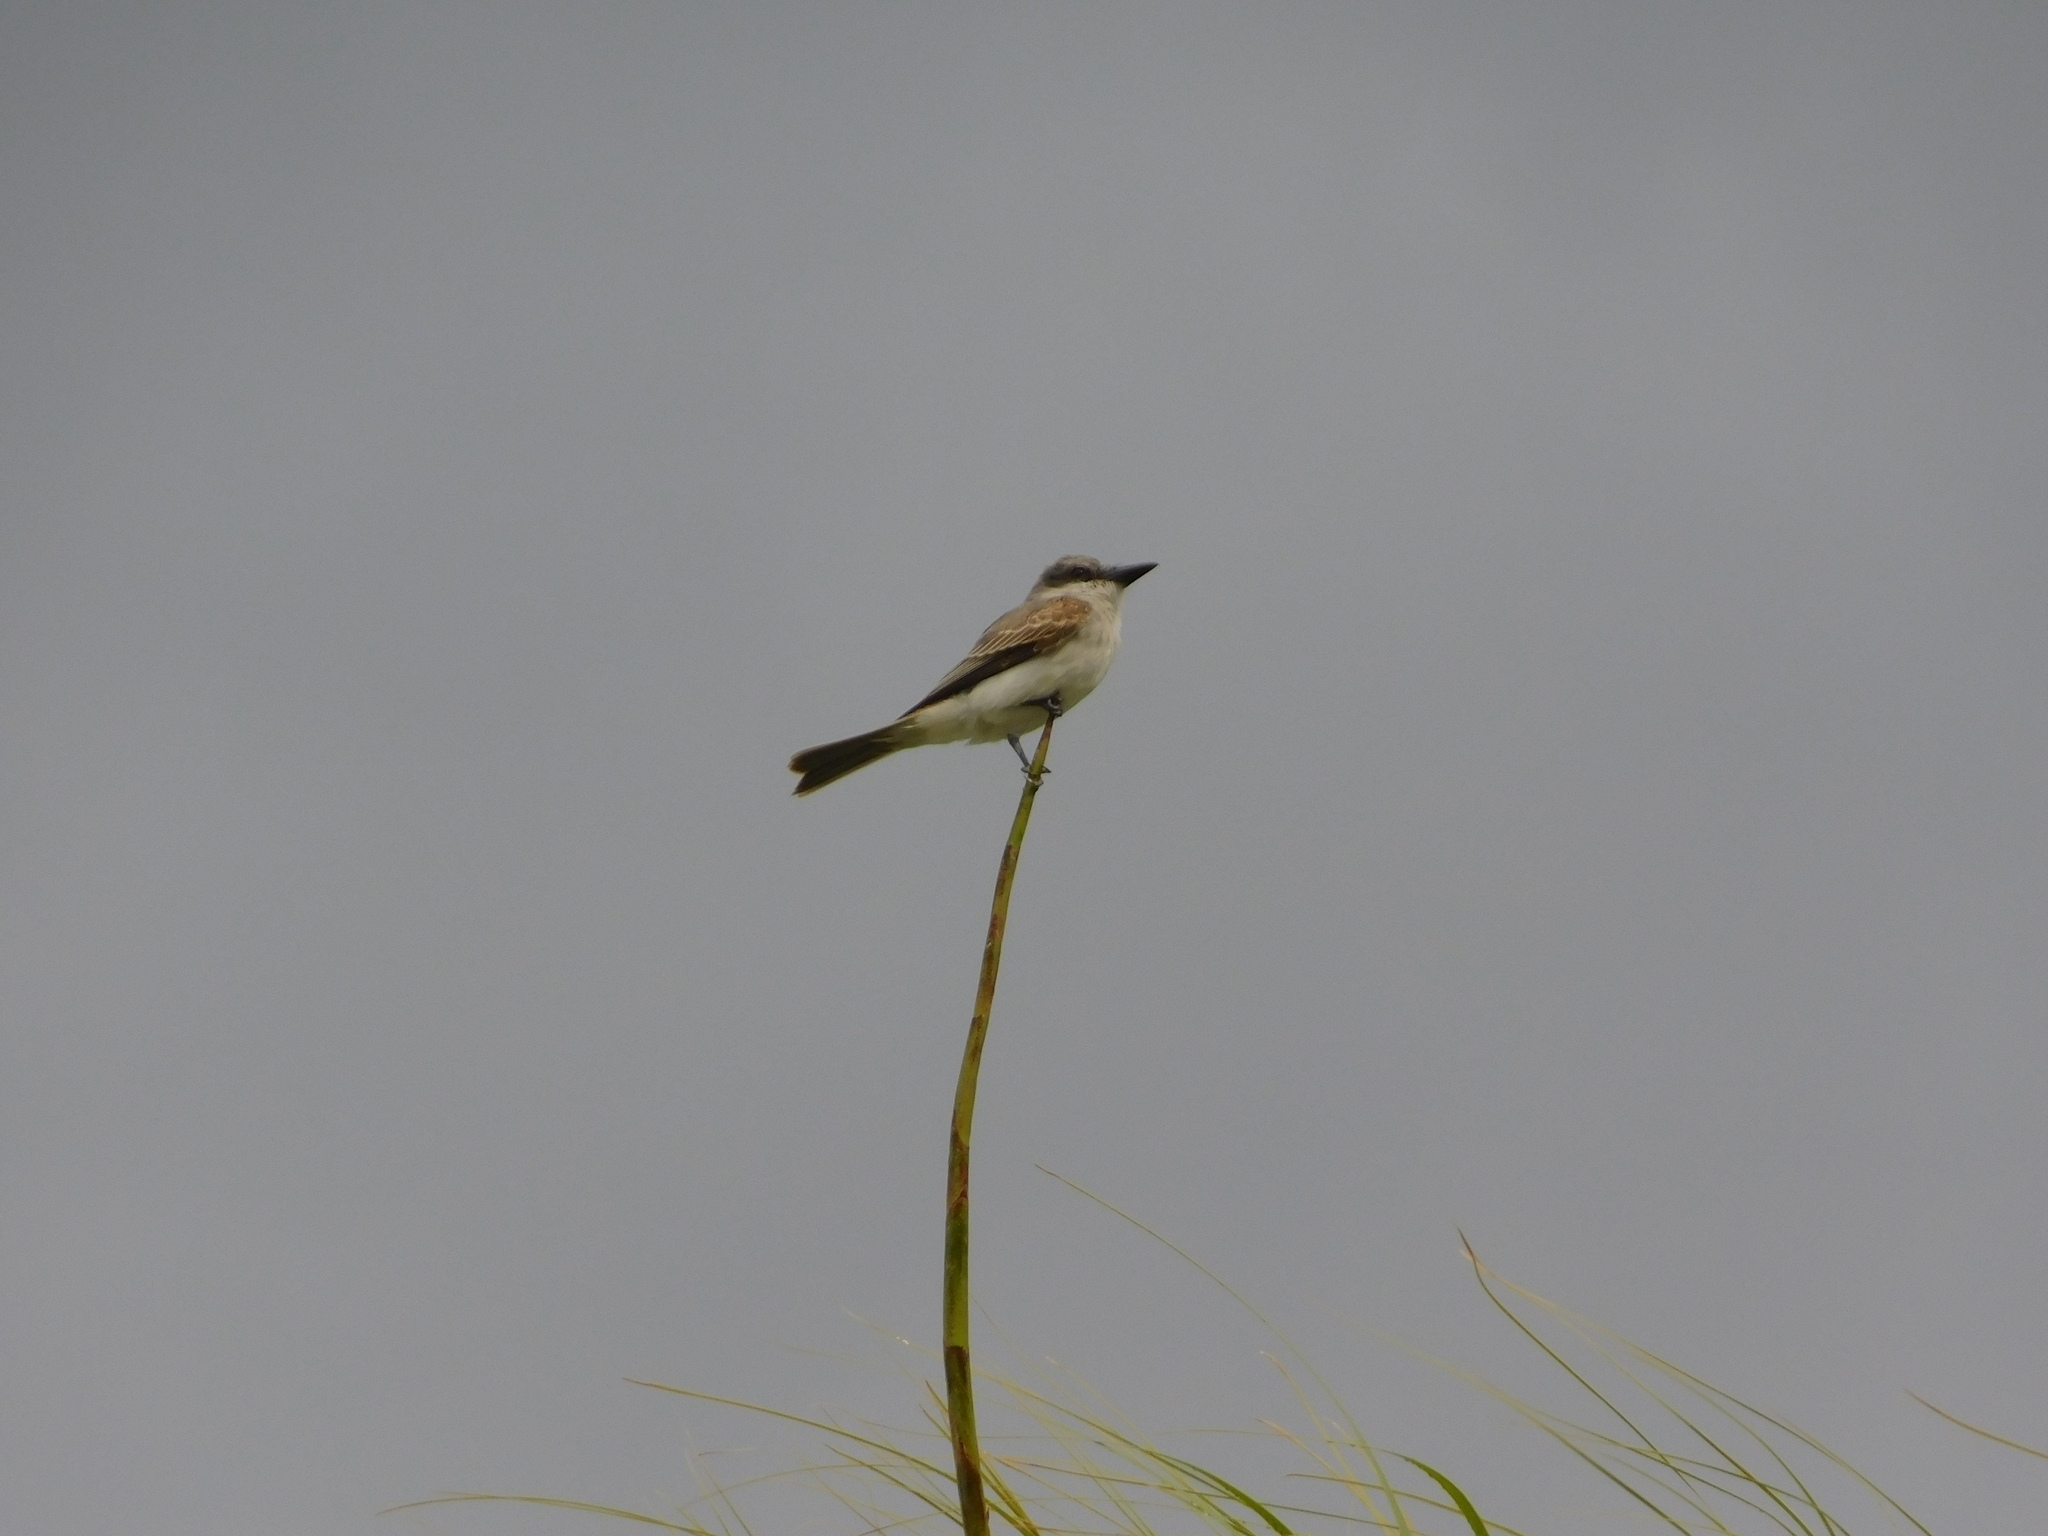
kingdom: Animalia
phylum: Chordata
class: Aves
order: Passeriformes
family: Tyrannidae
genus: Tyrannus
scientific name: Tyrannus dominicensis
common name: Gray kingbird
